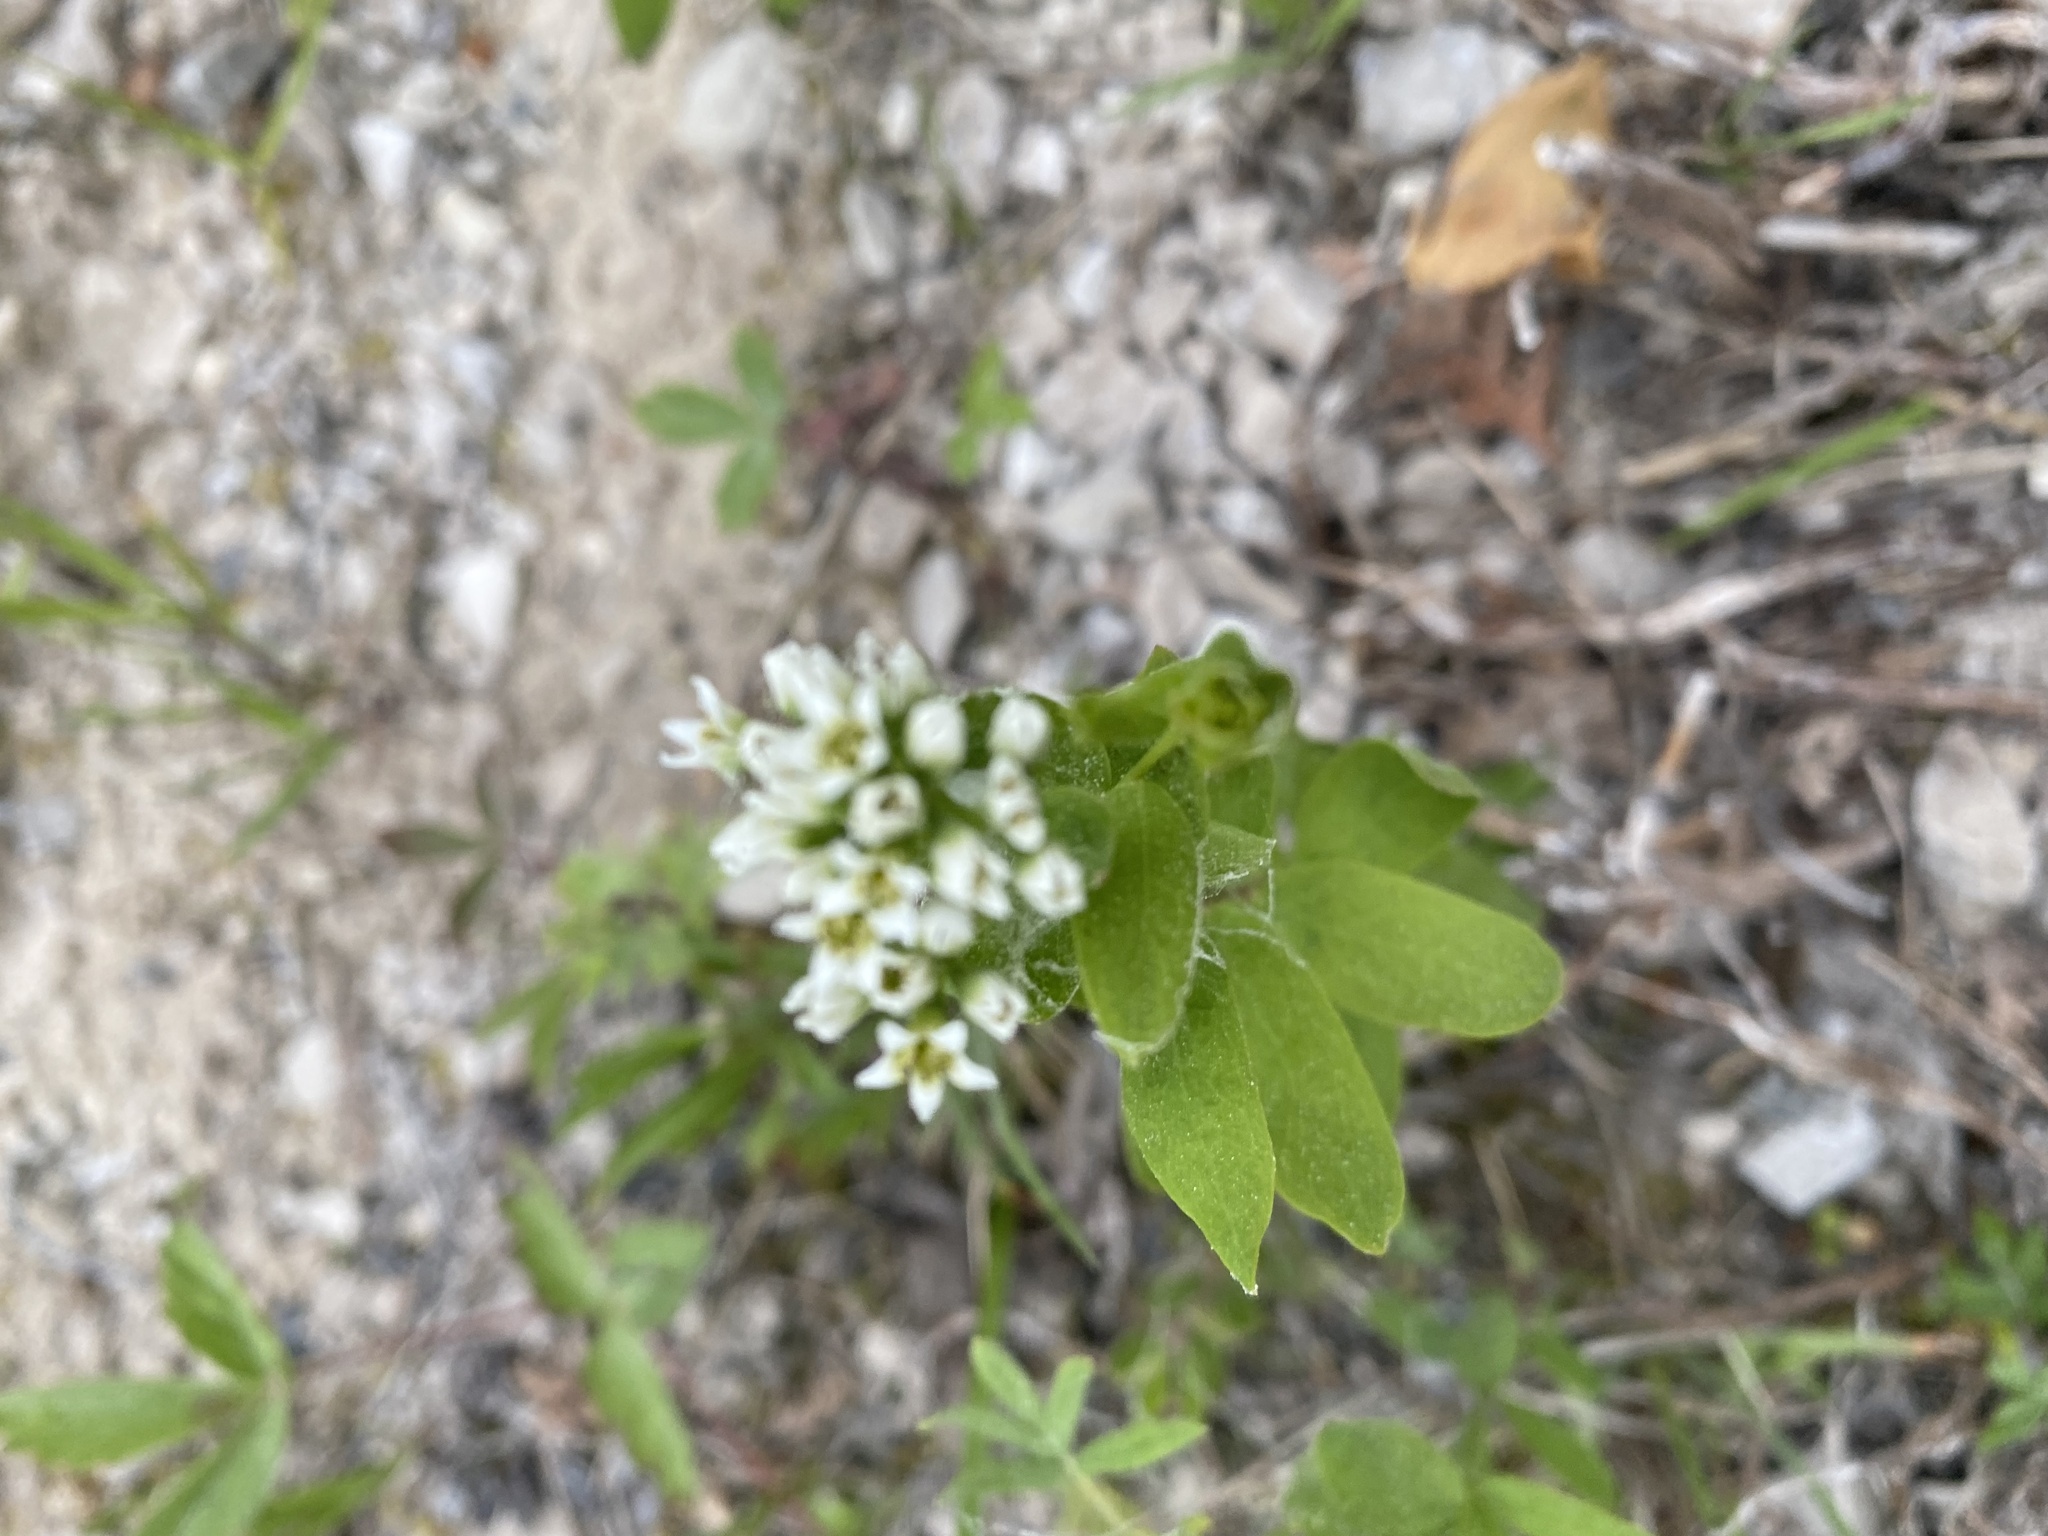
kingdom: Plantae
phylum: Tracheophyta
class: Magnoliopsida
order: Santalales
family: Comandraceae
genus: Comandra
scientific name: Comandra umbellata
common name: Bastard toadflax
